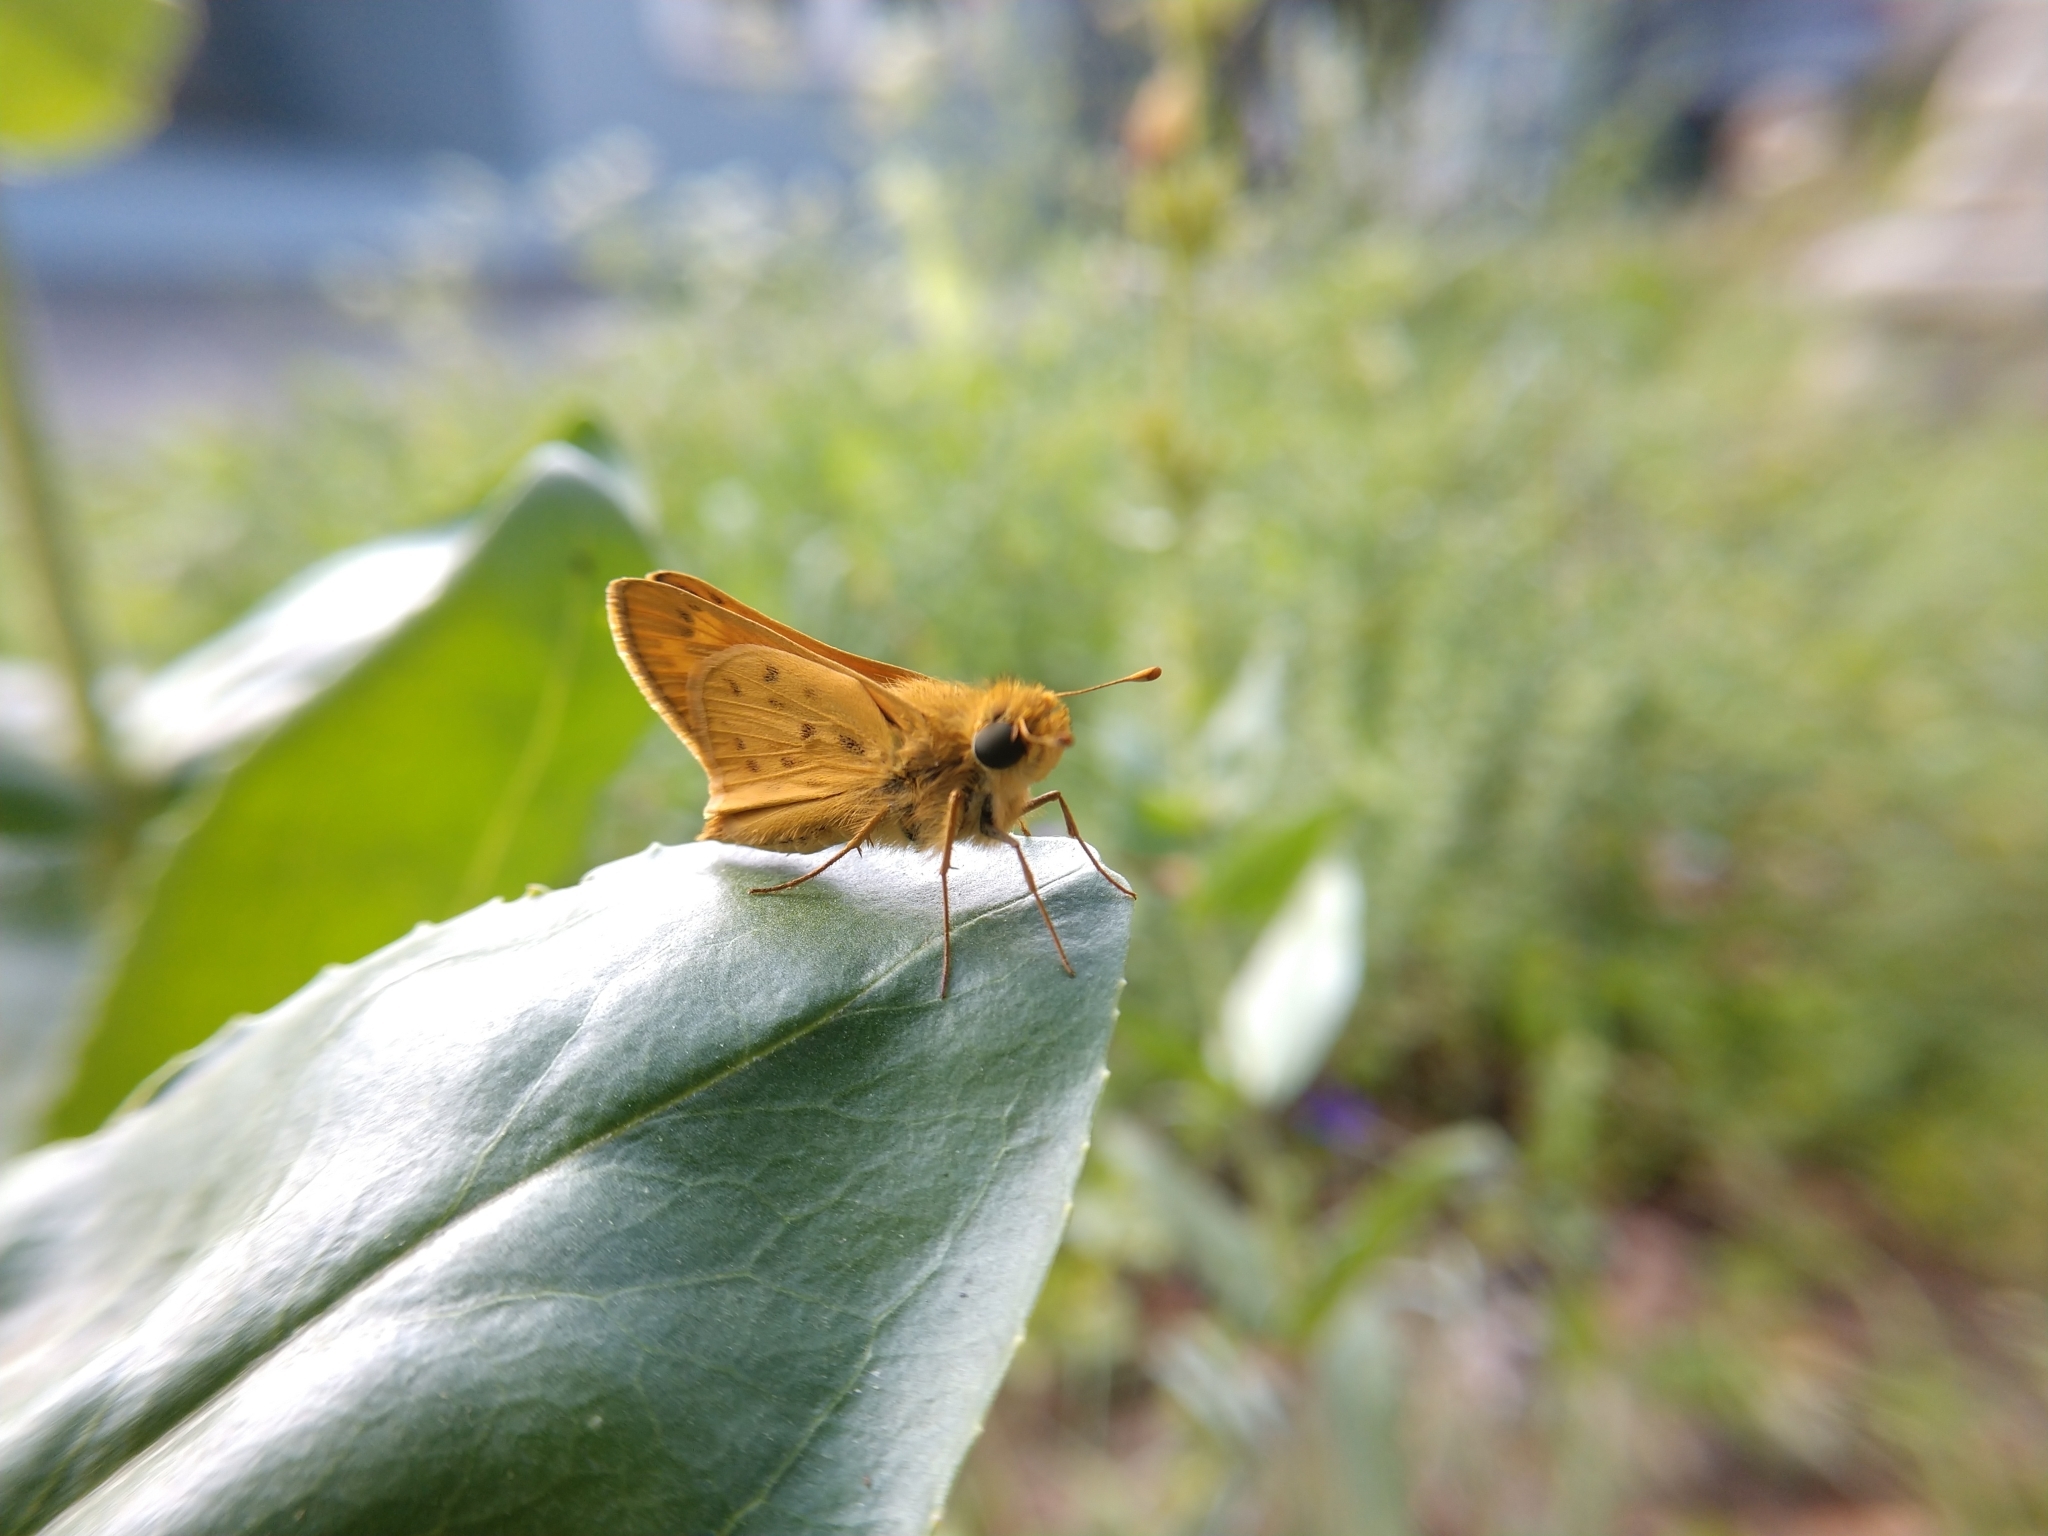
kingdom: Animalia
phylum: Arthropoda
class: Insecta
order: Lepidoptera
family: Hesperiidae
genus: Hylephila
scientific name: Hylephila phyleus
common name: Fiery skipper
